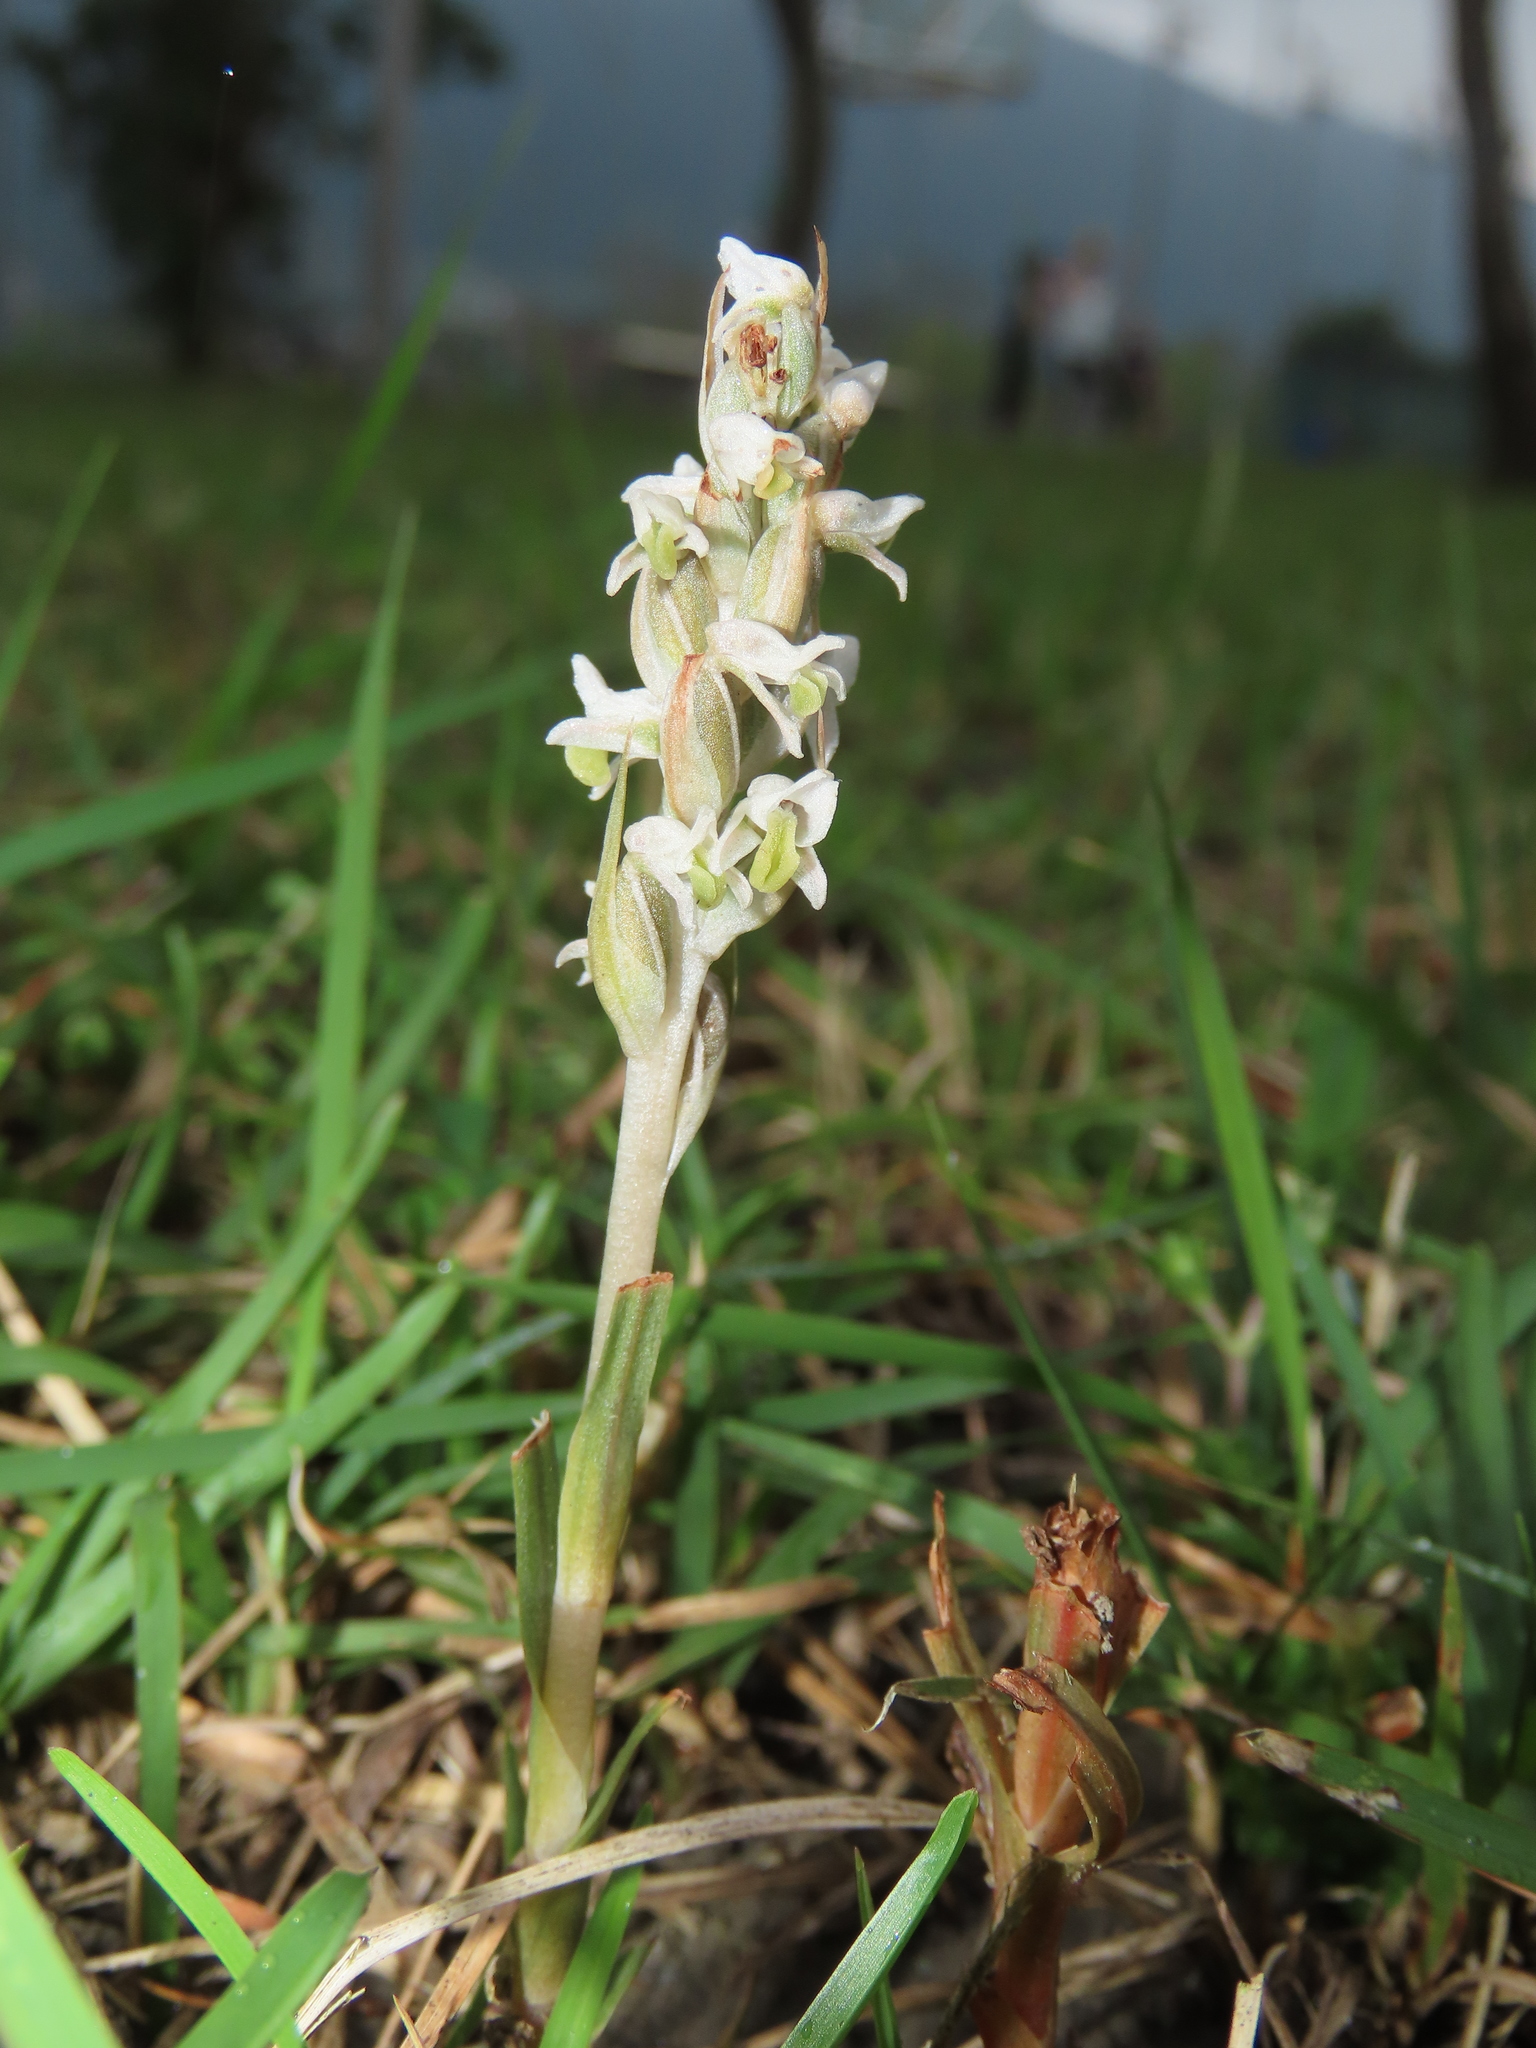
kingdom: Plantae
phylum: Tracheophyta
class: Liliopsida
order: Asparagales
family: Orchidaceae
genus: Zeuxine
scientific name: Zeuxine strateumatica
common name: Soldier's orchid
